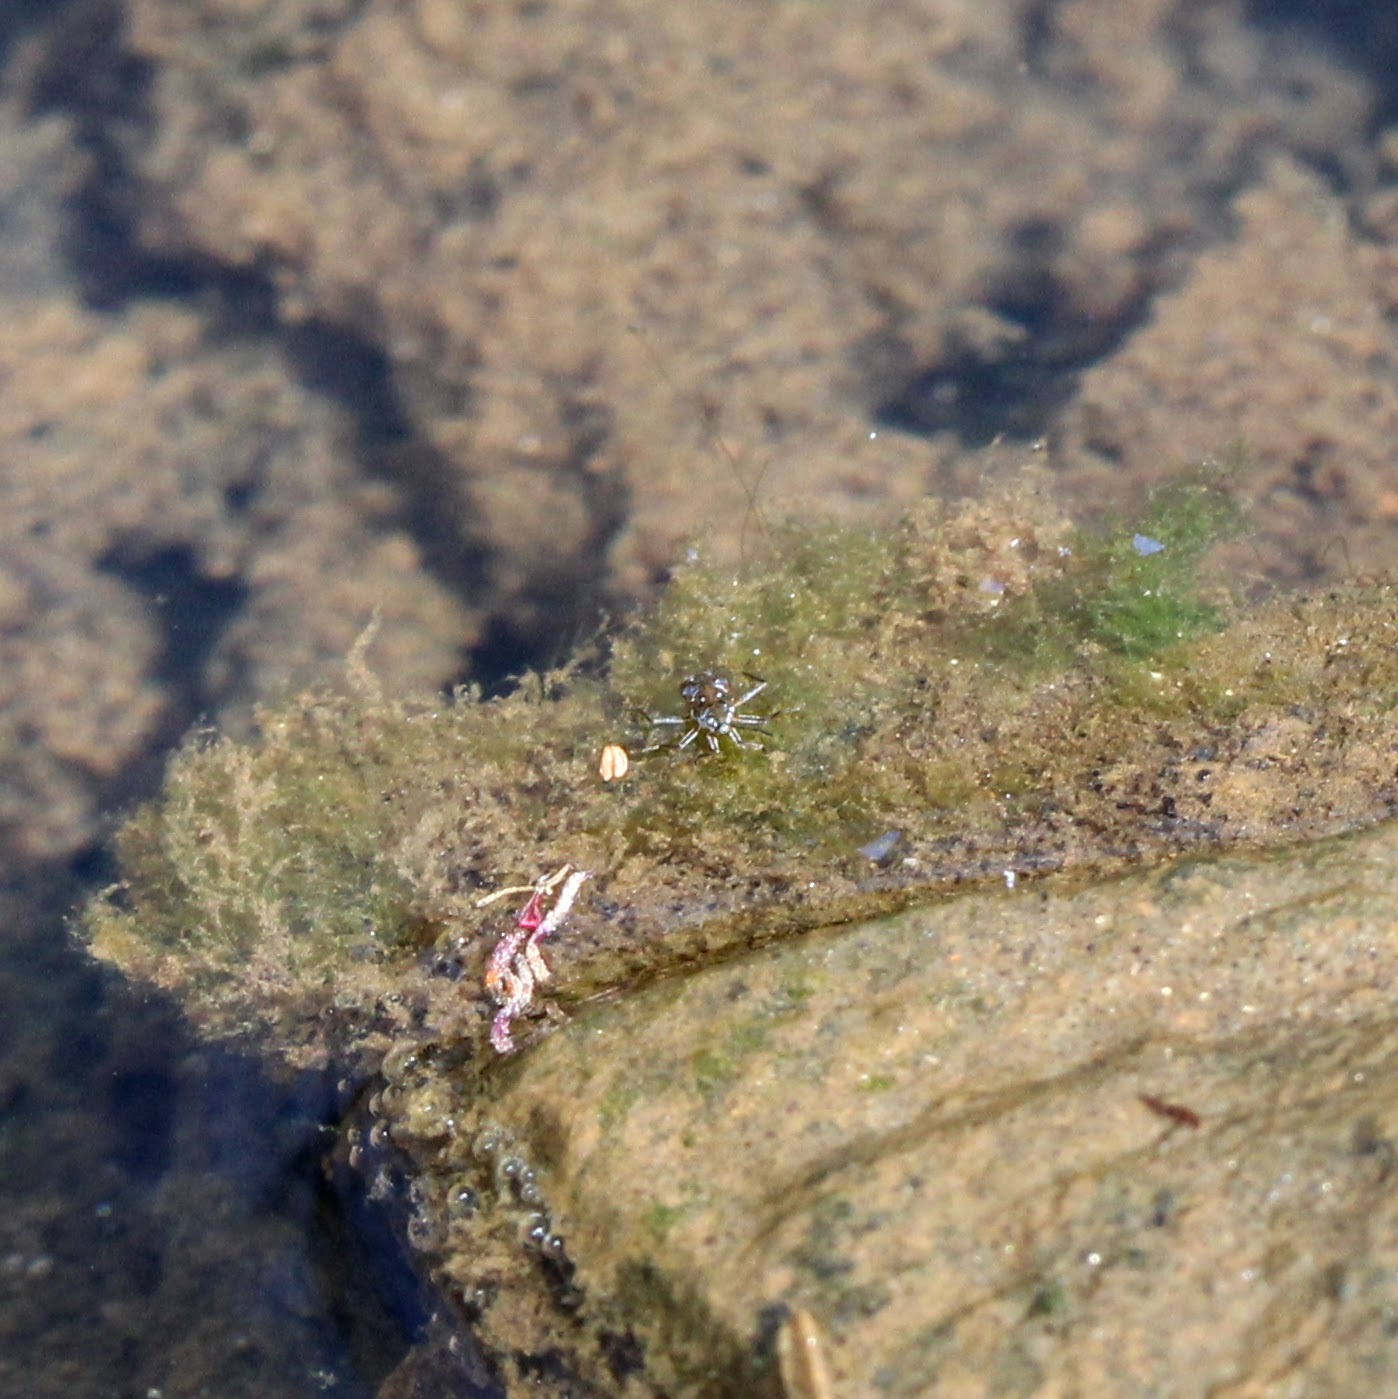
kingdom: Animalia
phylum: Arthropoda
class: Insecta
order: Hemiptera
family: Veliidae
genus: Microvelia
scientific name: Microvelia americana
